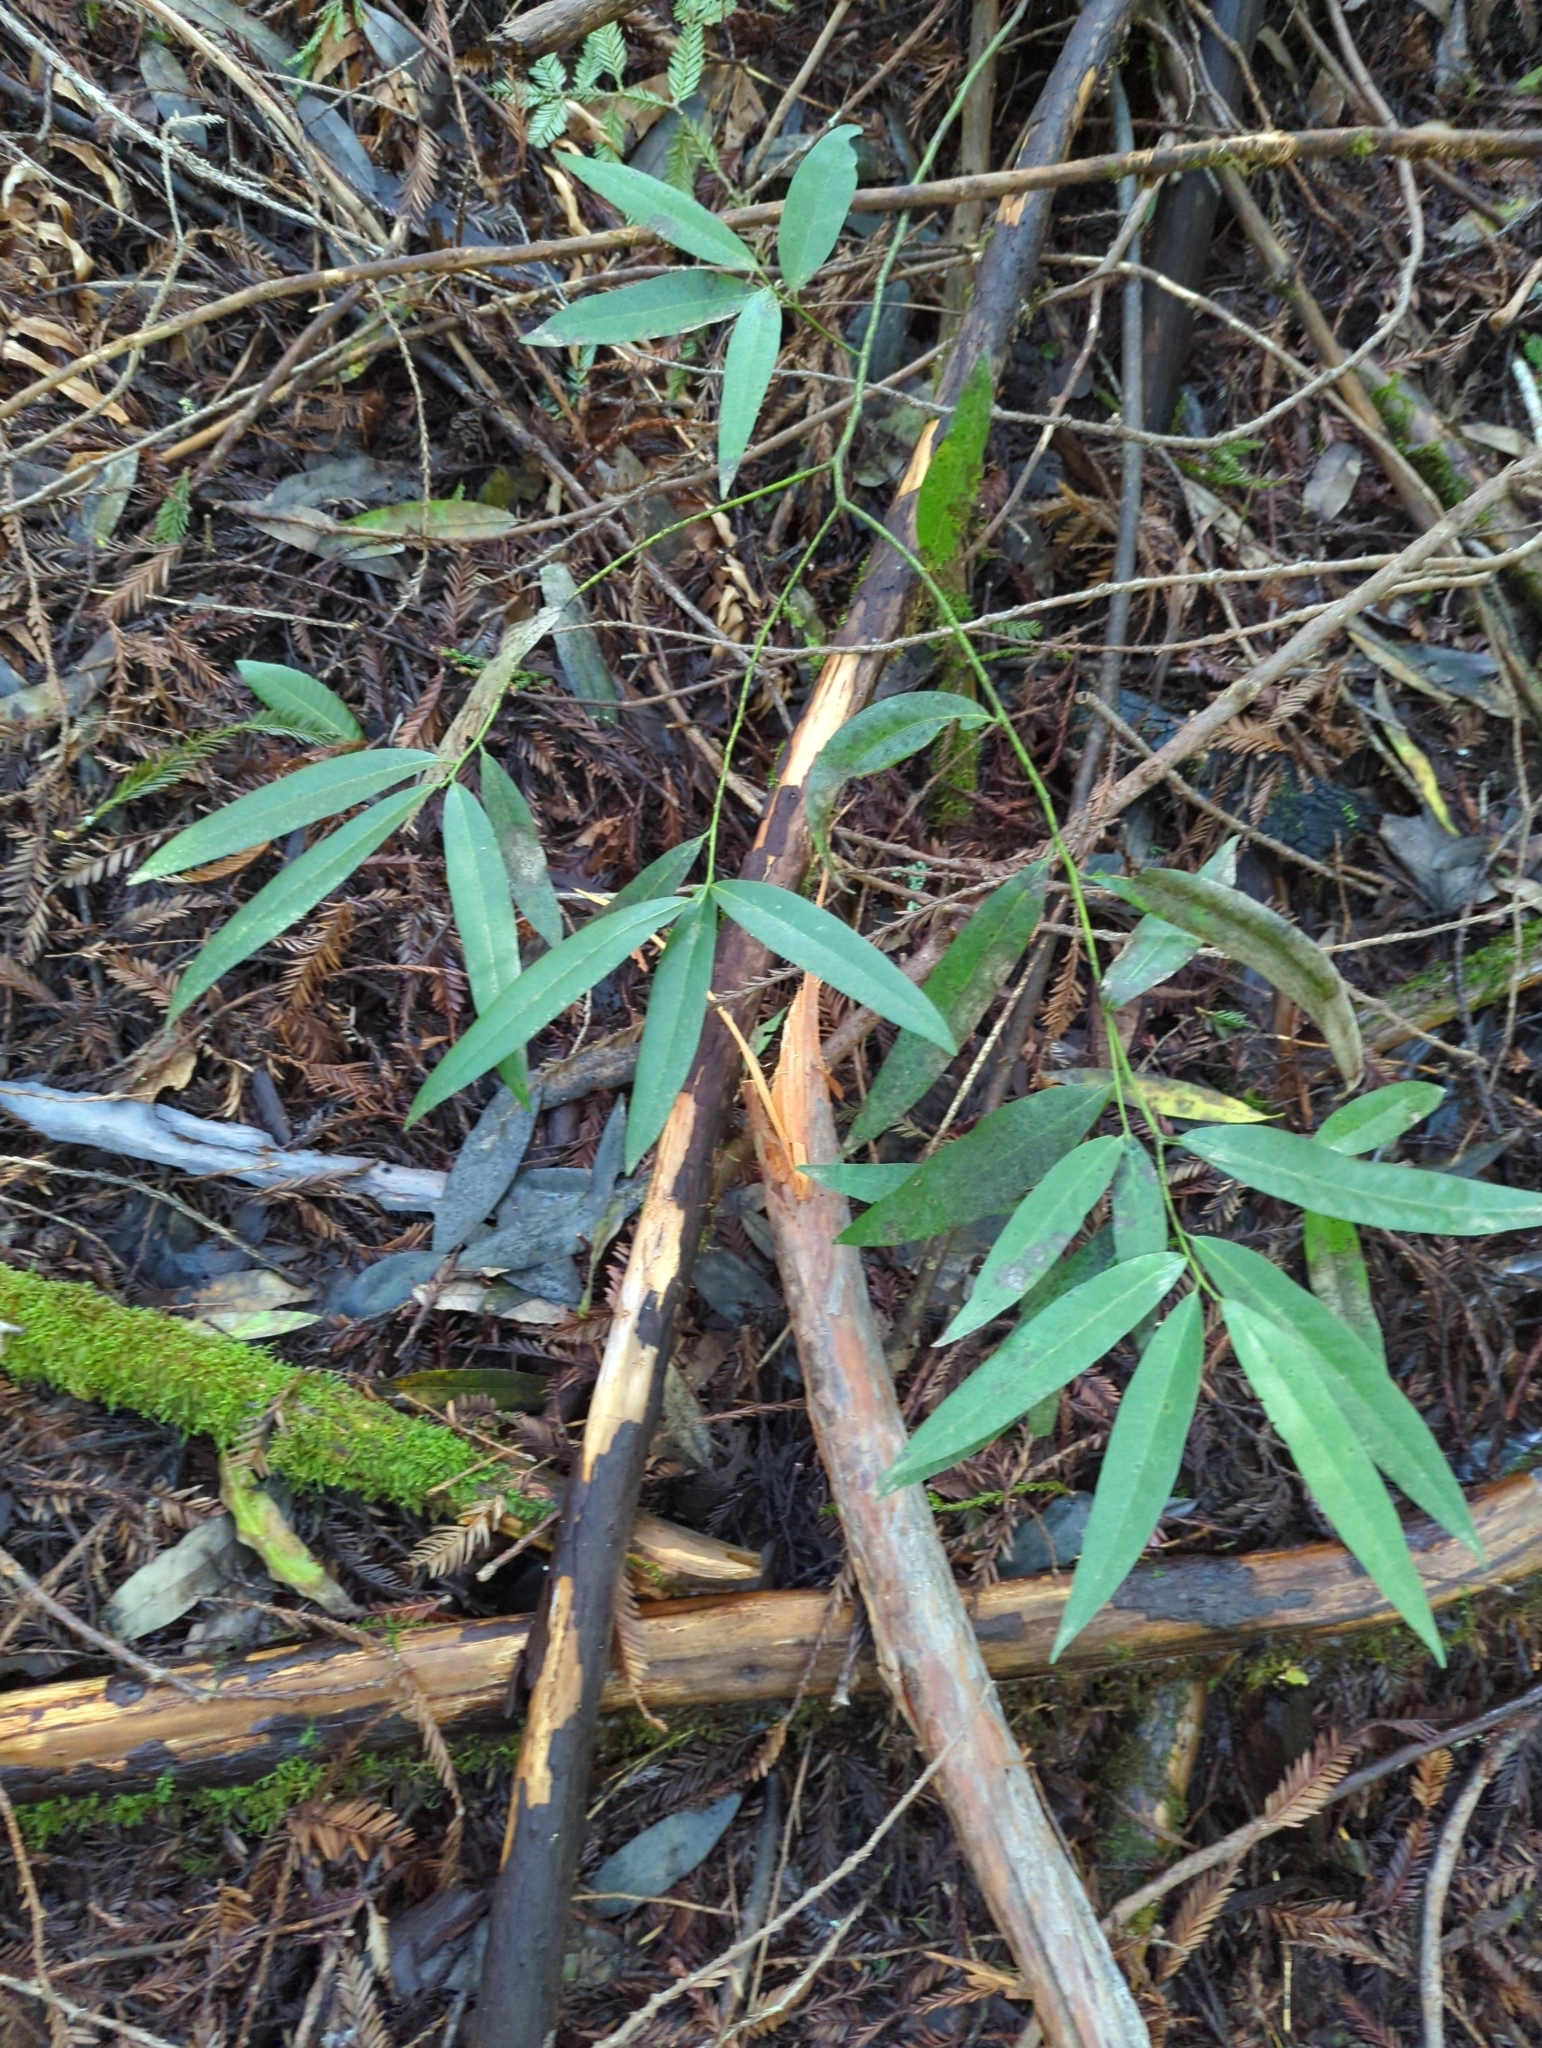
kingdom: Plantae
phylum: Tracheophyta
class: Magnoliopsida
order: Laurales
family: Lauraceae
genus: Umbellularia
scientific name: Umbellularia californica
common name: California bay
